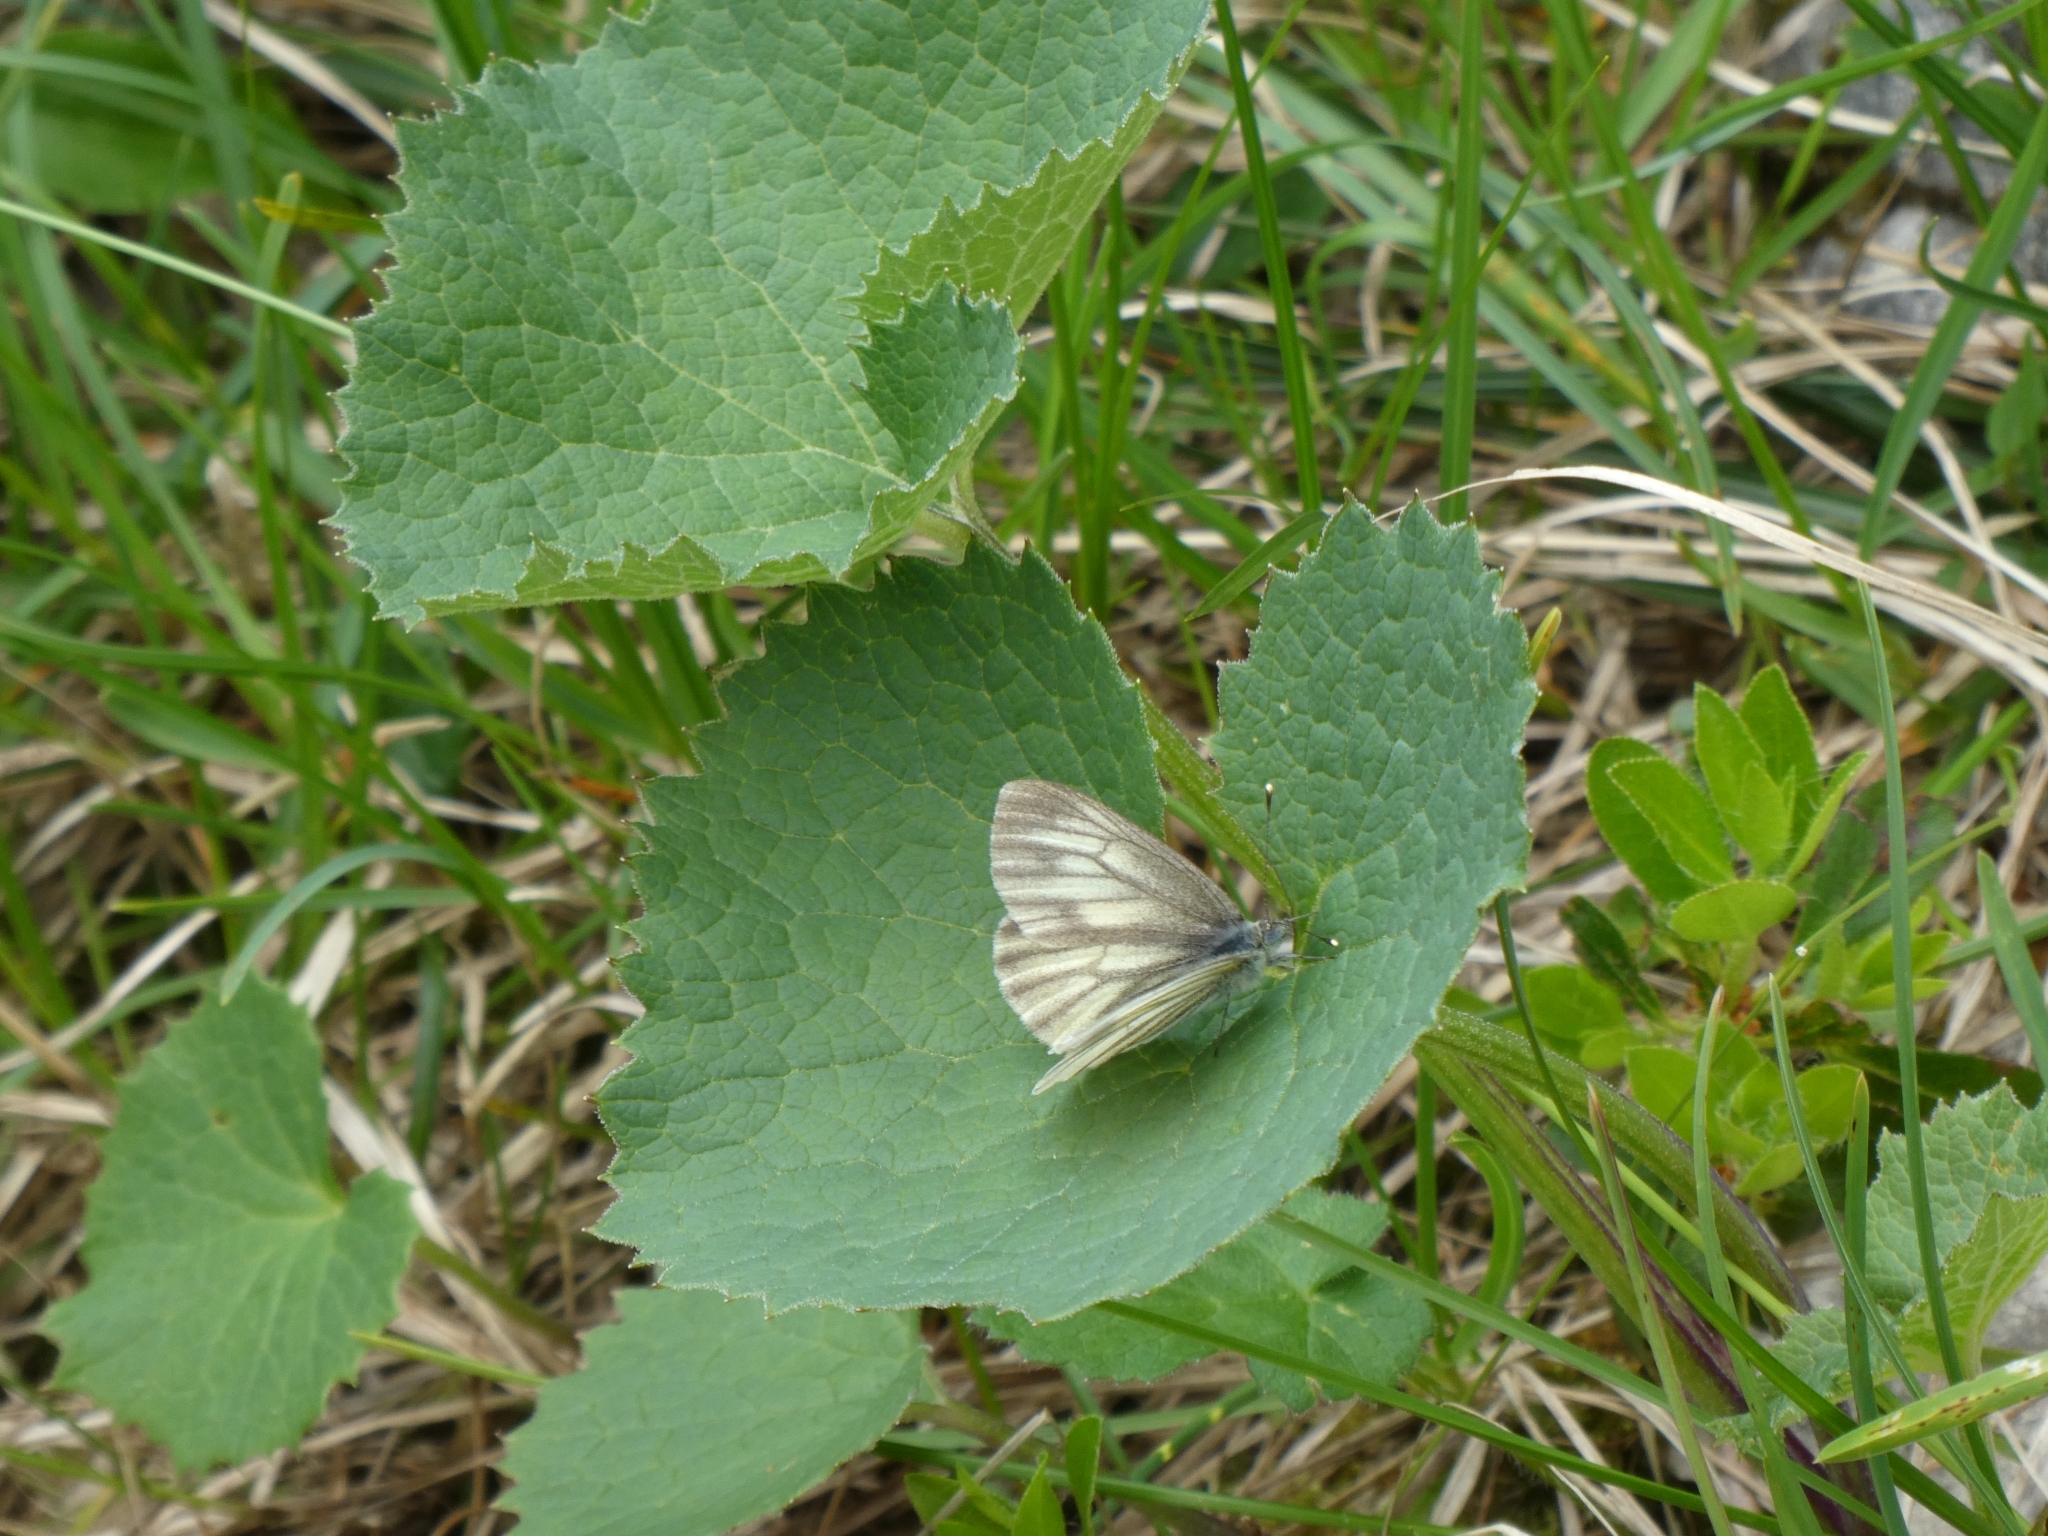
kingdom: Animalia
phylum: Arthropoda
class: Insecta
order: Lepidoptera
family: Pieridae
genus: Pieris
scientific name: Pieris bryoniae
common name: Mountain green-veined white
